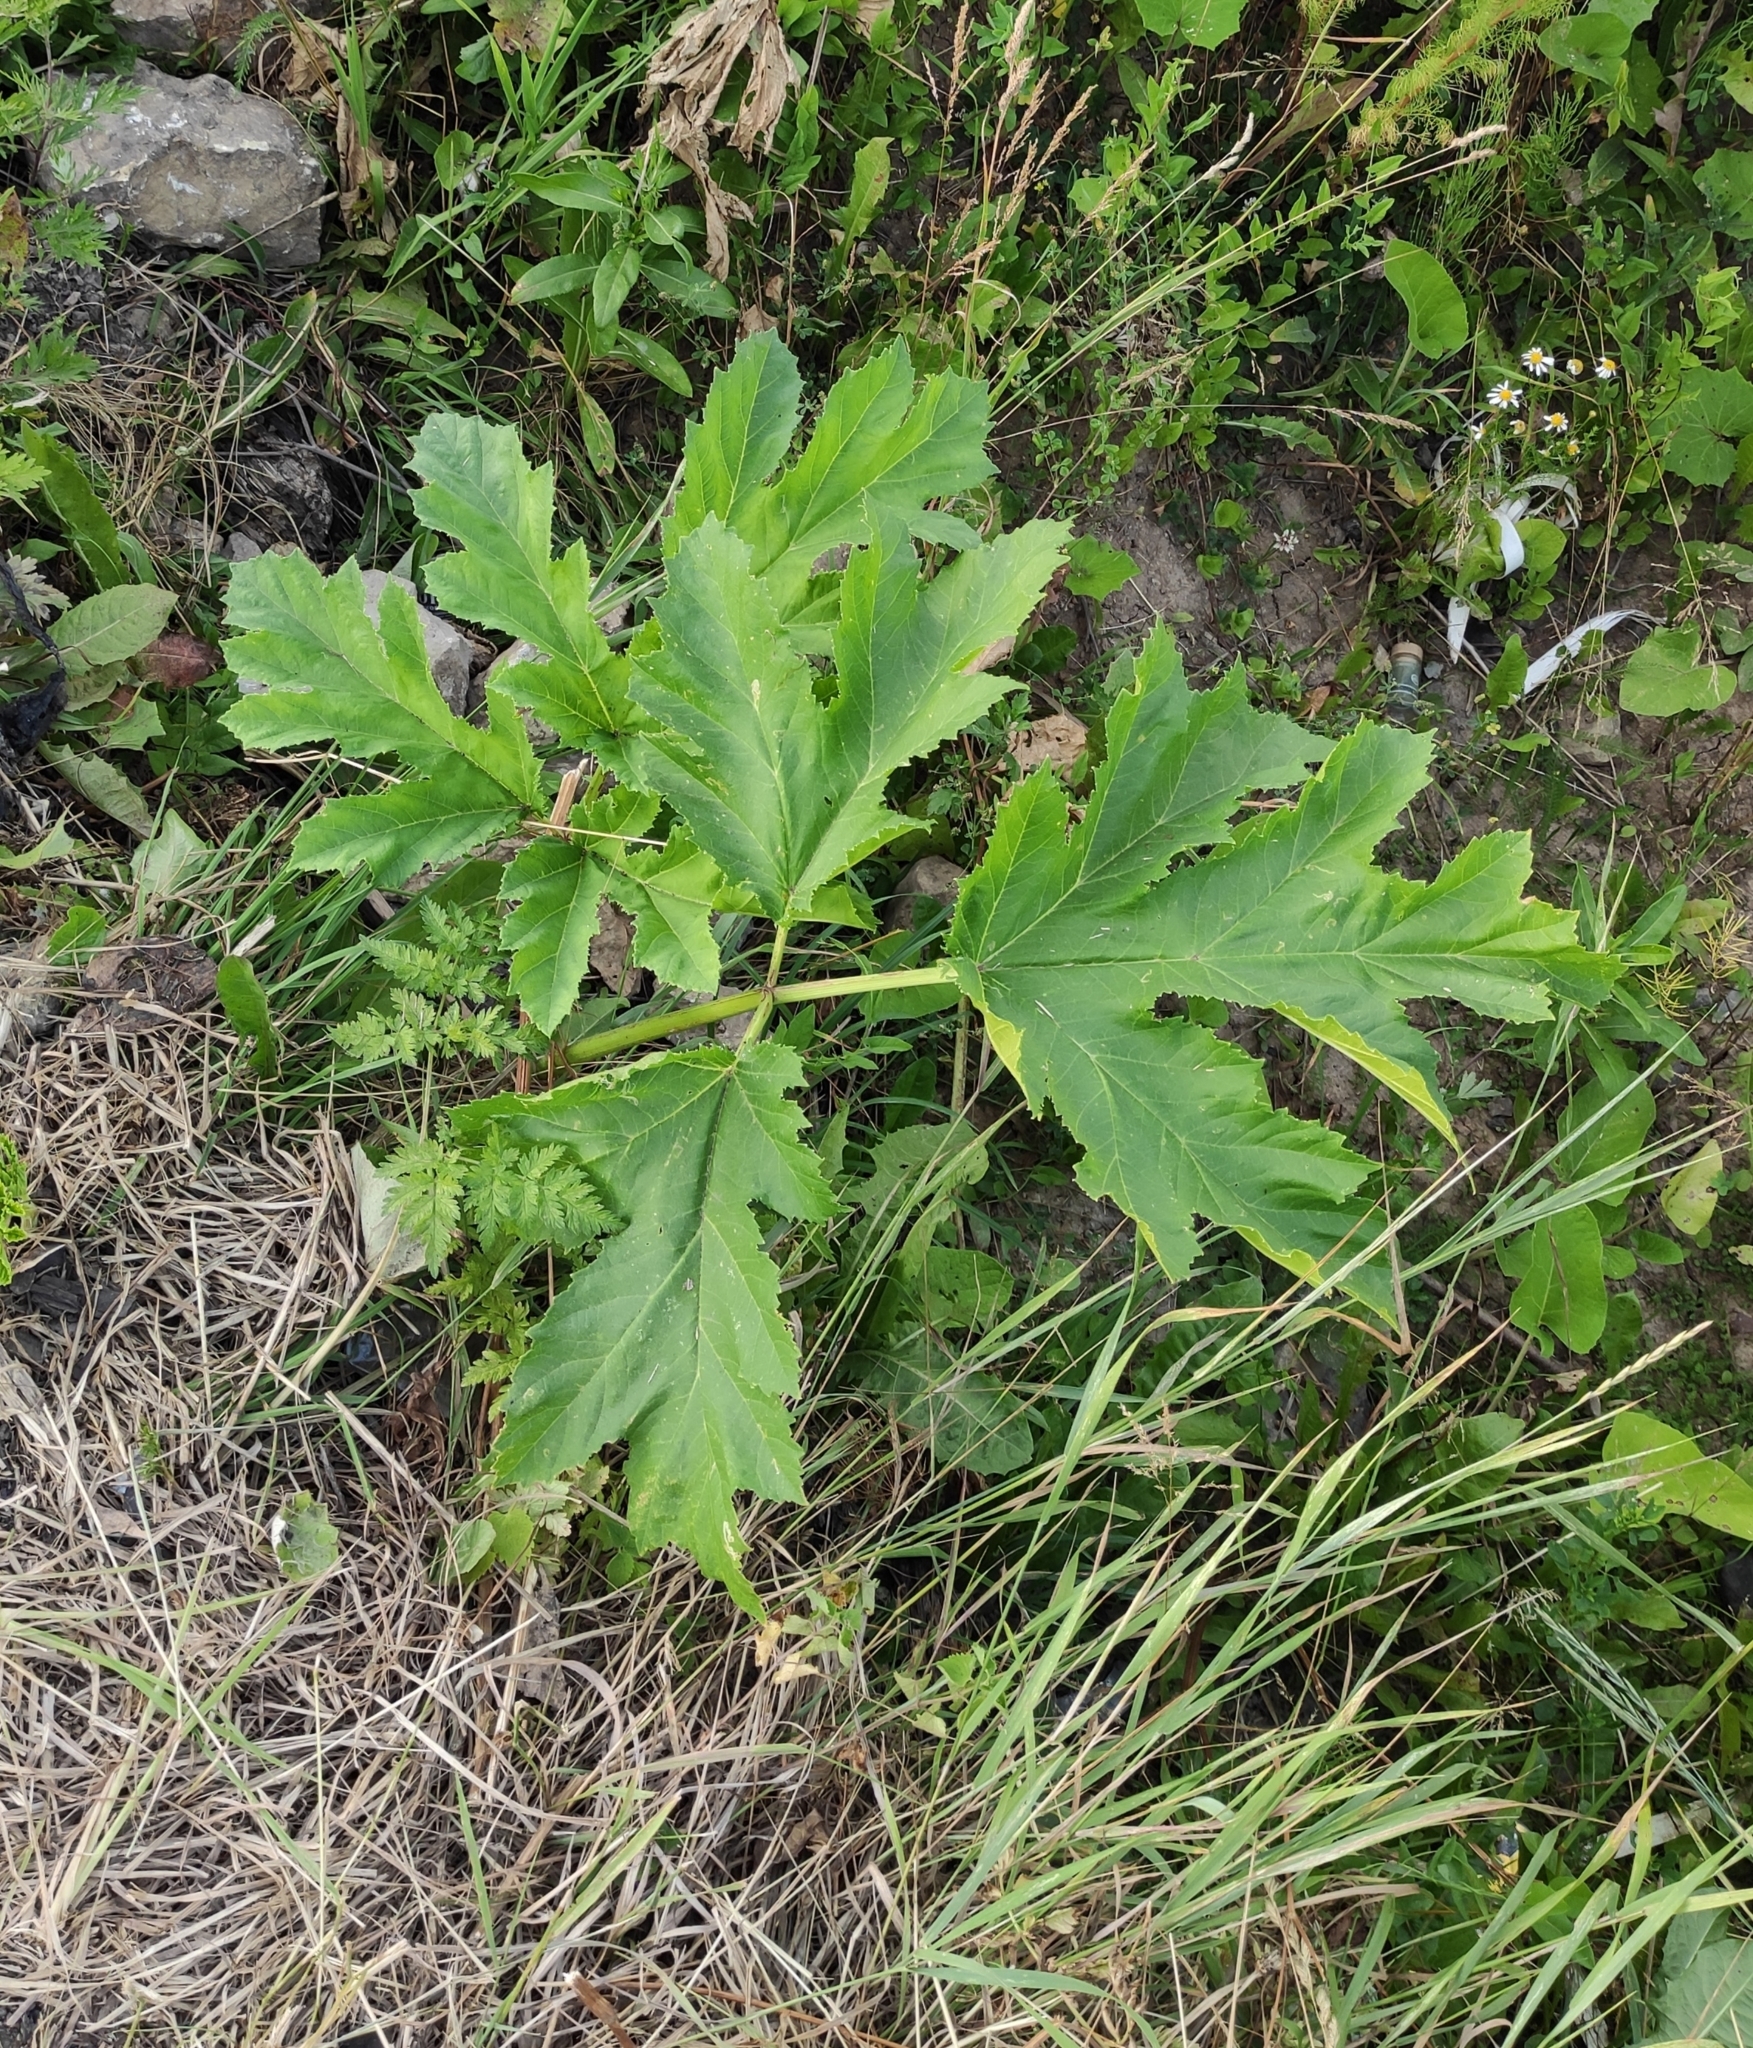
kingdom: Plantae
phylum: Tracheophyta
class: Magnoliopsida
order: Apiales
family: Apiaceae
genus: Heracleum
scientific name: Heracleum sosnowskyi
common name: Sosnowsky's hogweed
